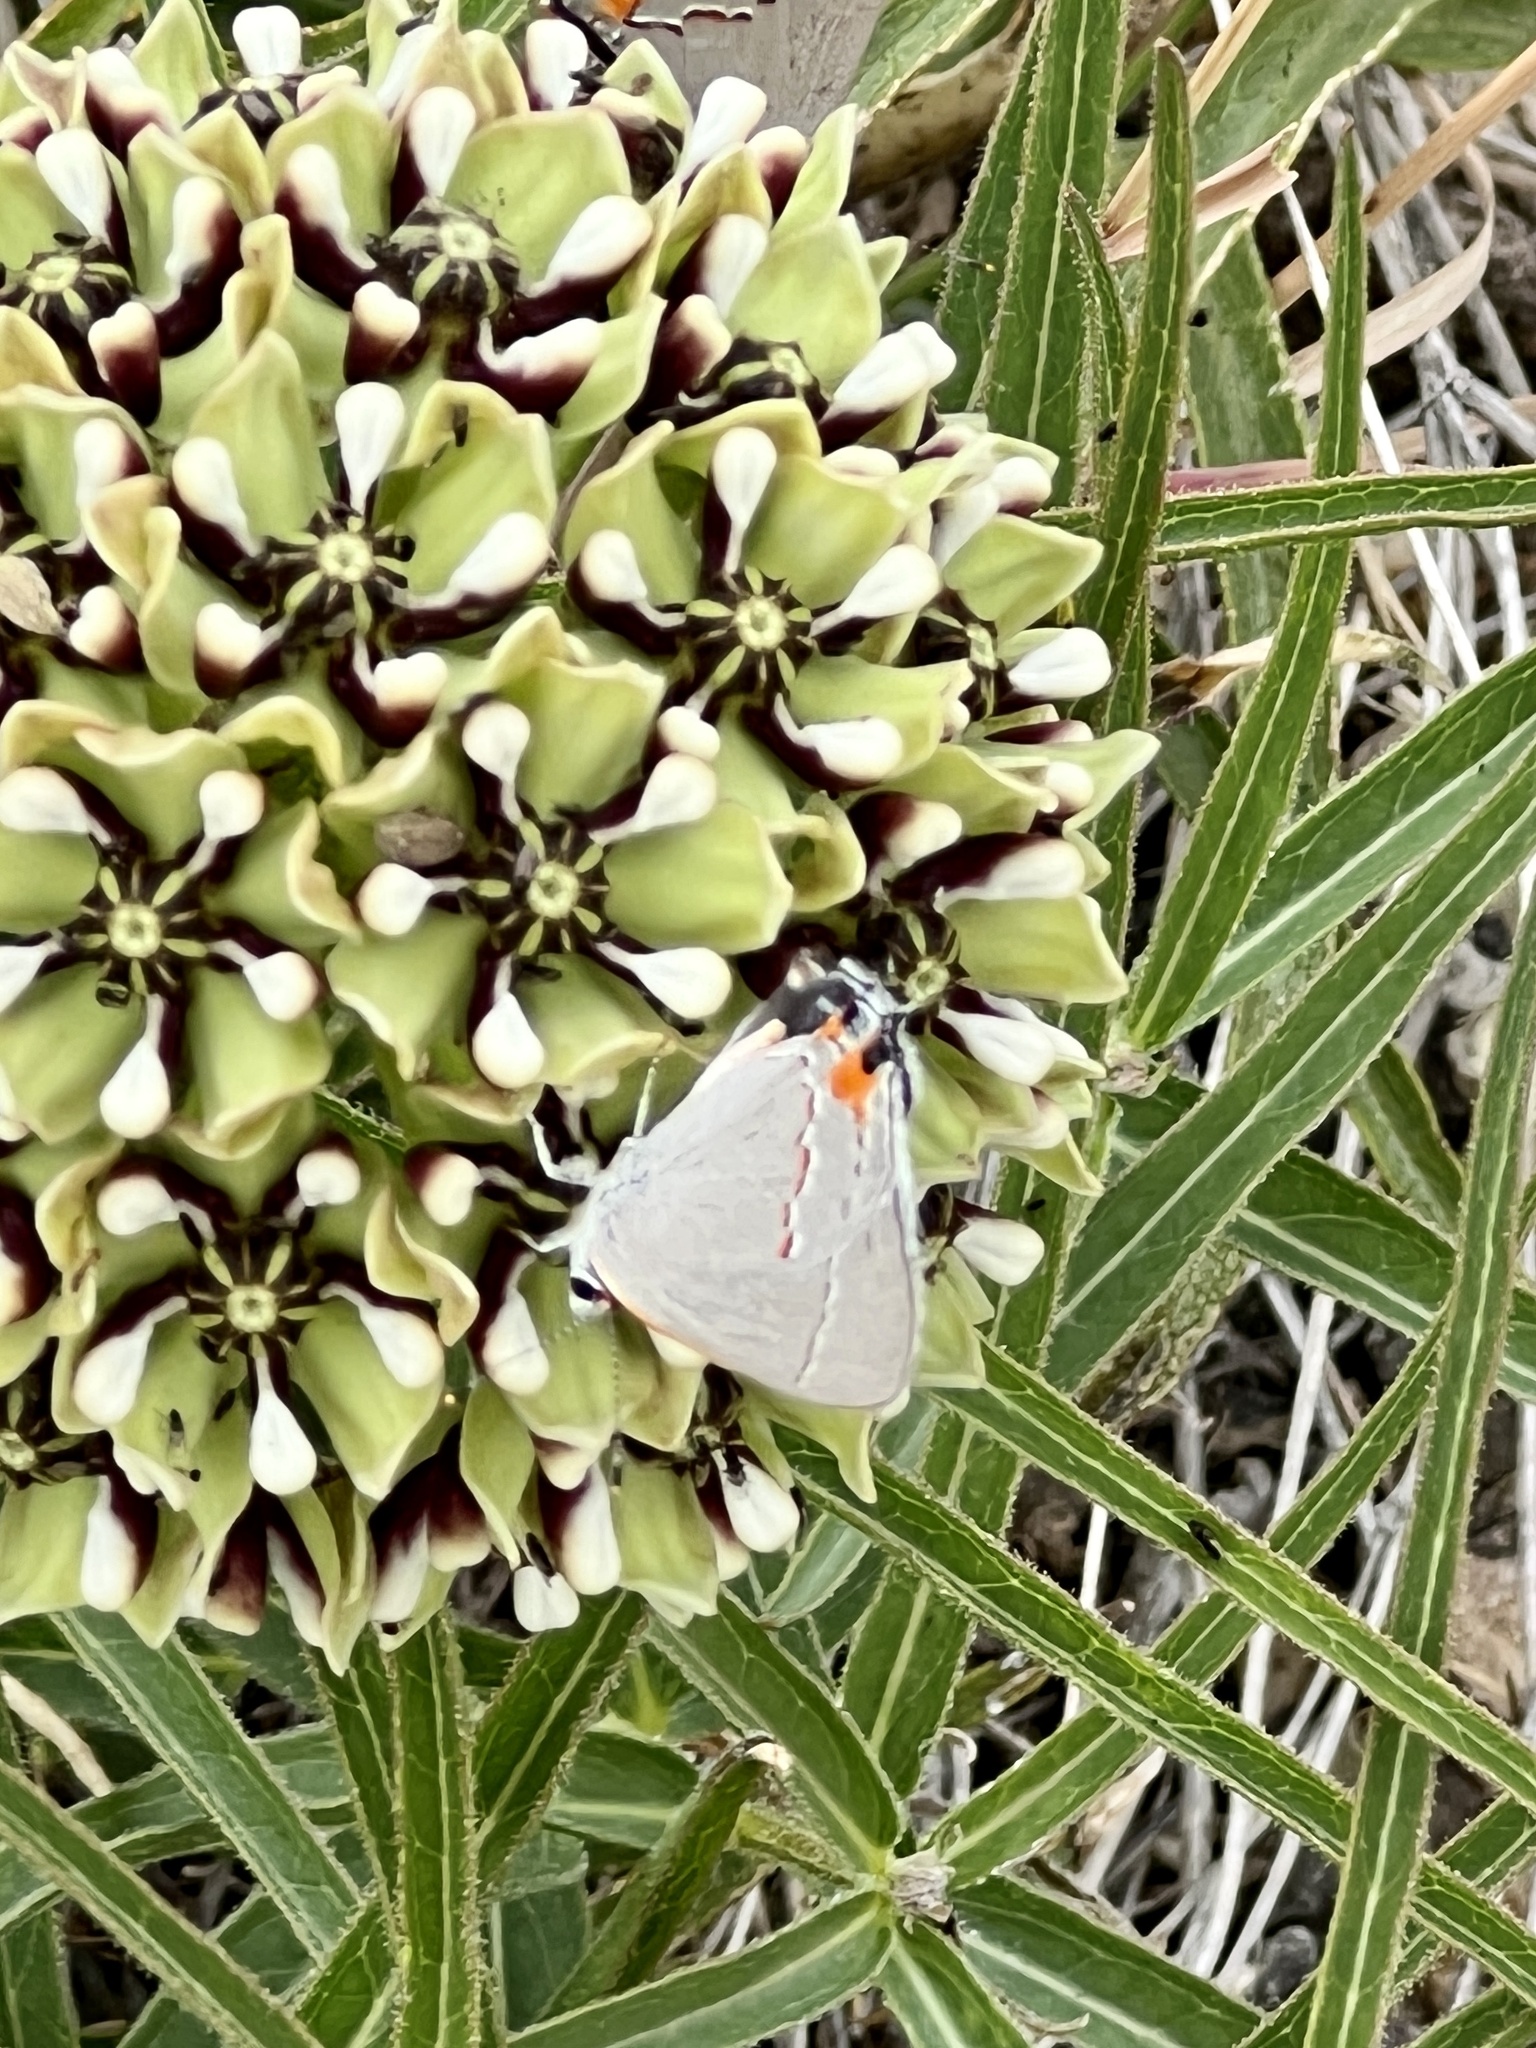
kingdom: Animalia
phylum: Arthropoda
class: Insecta
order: Lepidoptera
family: Lycaenidae
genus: Strymon
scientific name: Strymon melinus
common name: Gray hairstreak
